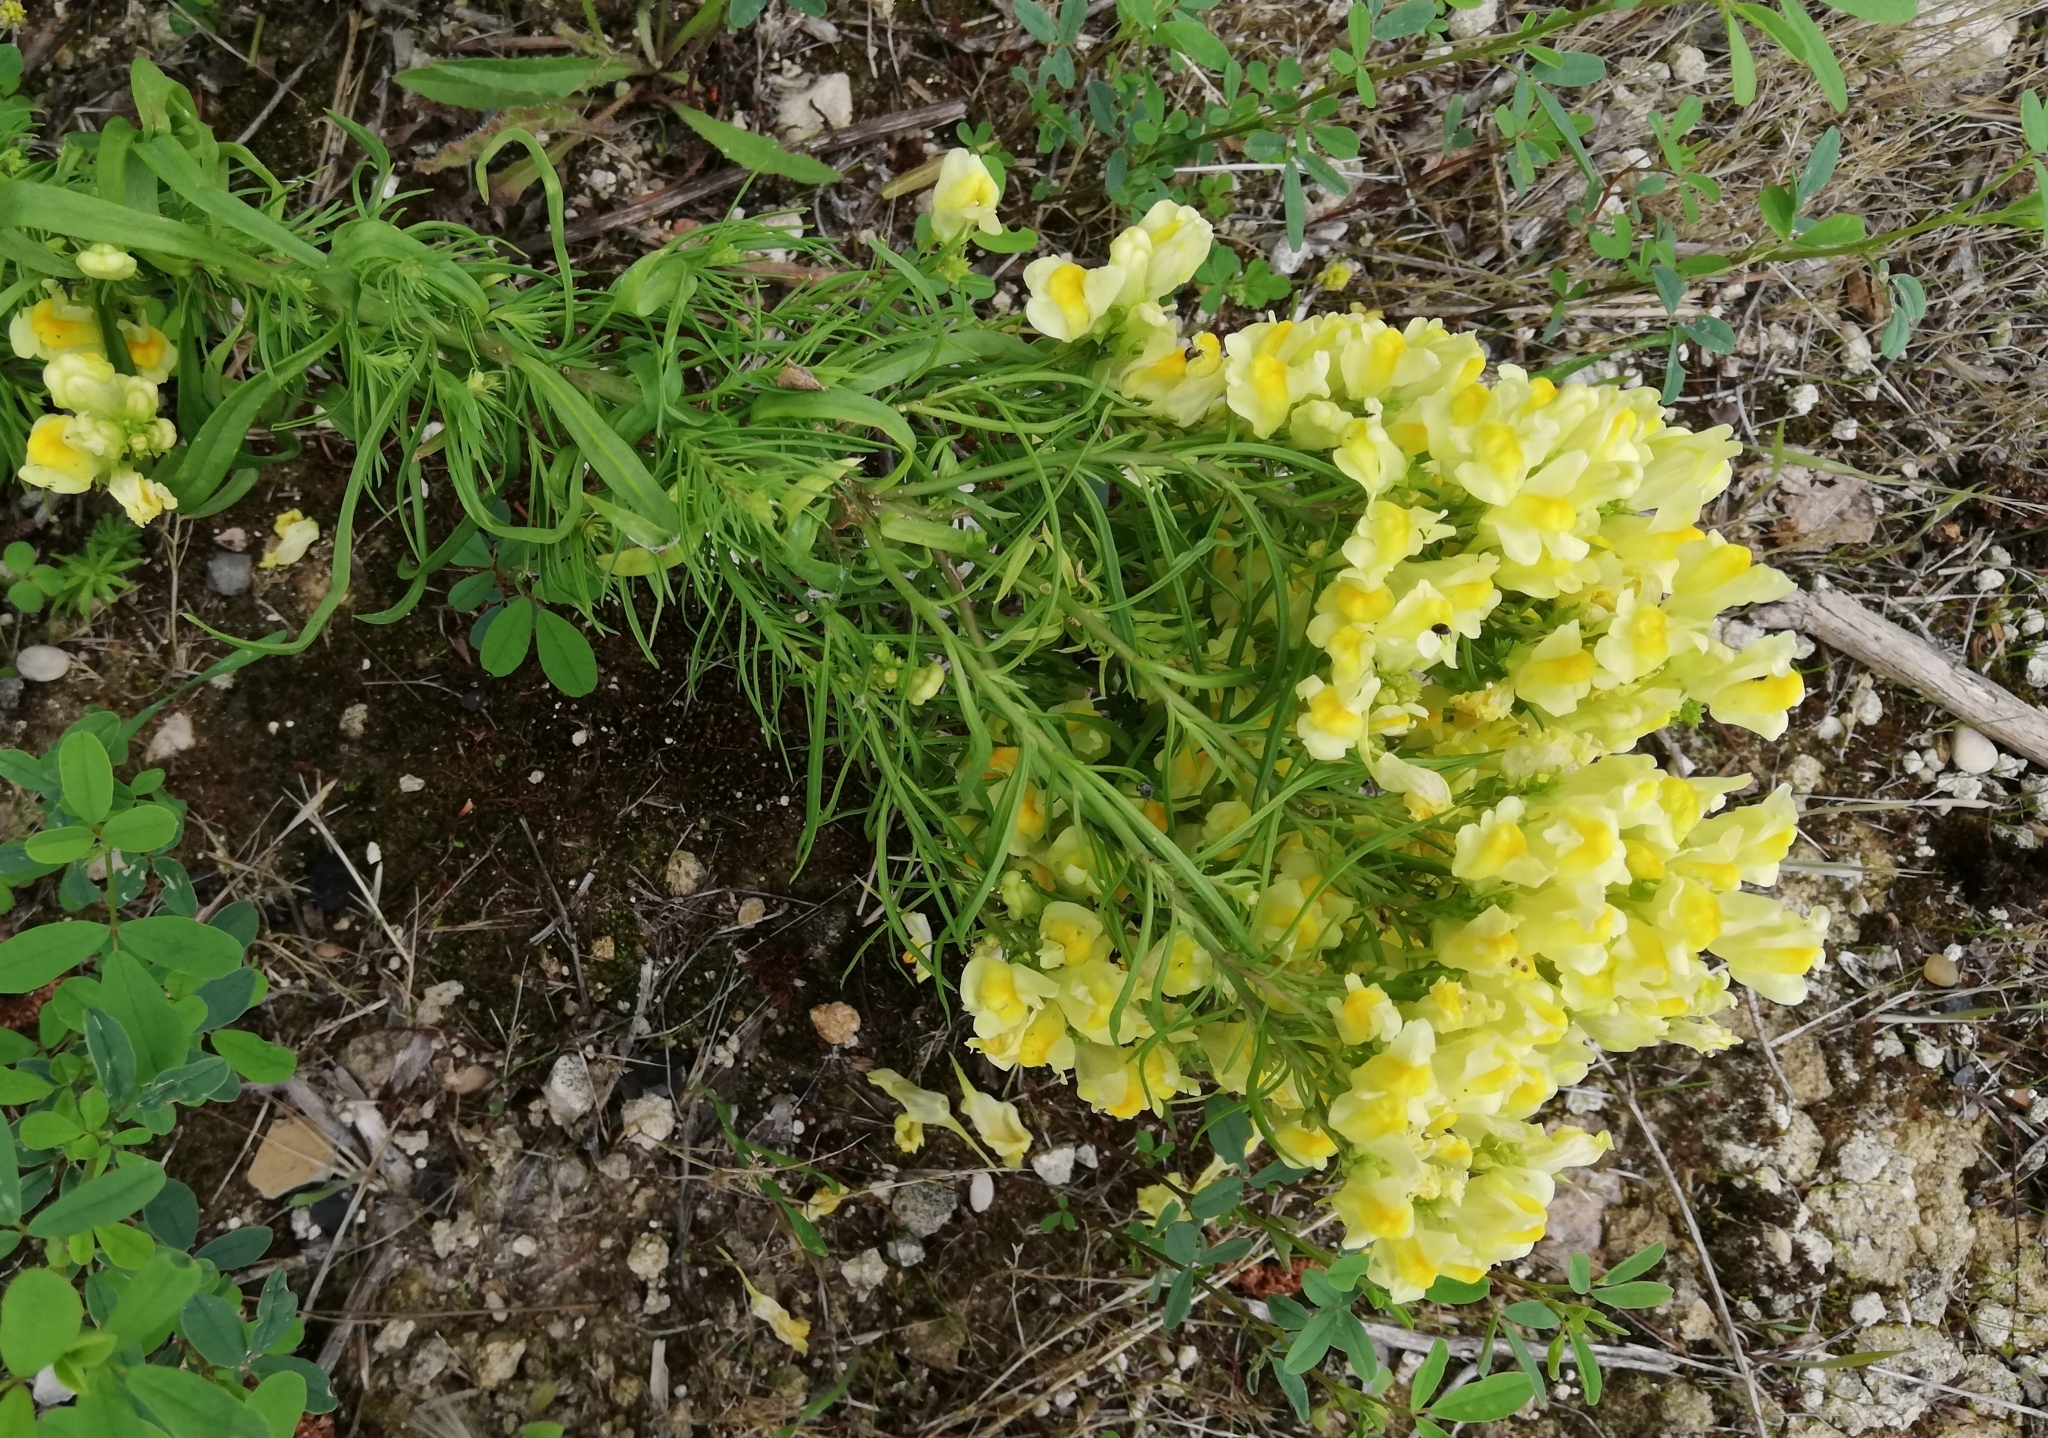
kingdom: Plantae
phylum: Tracheophyta
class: Magnoliopsida
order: Lamiales
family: Plantaginaceae
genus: Linaria
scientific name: Linaria vulgaris
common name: Butter and eggs
